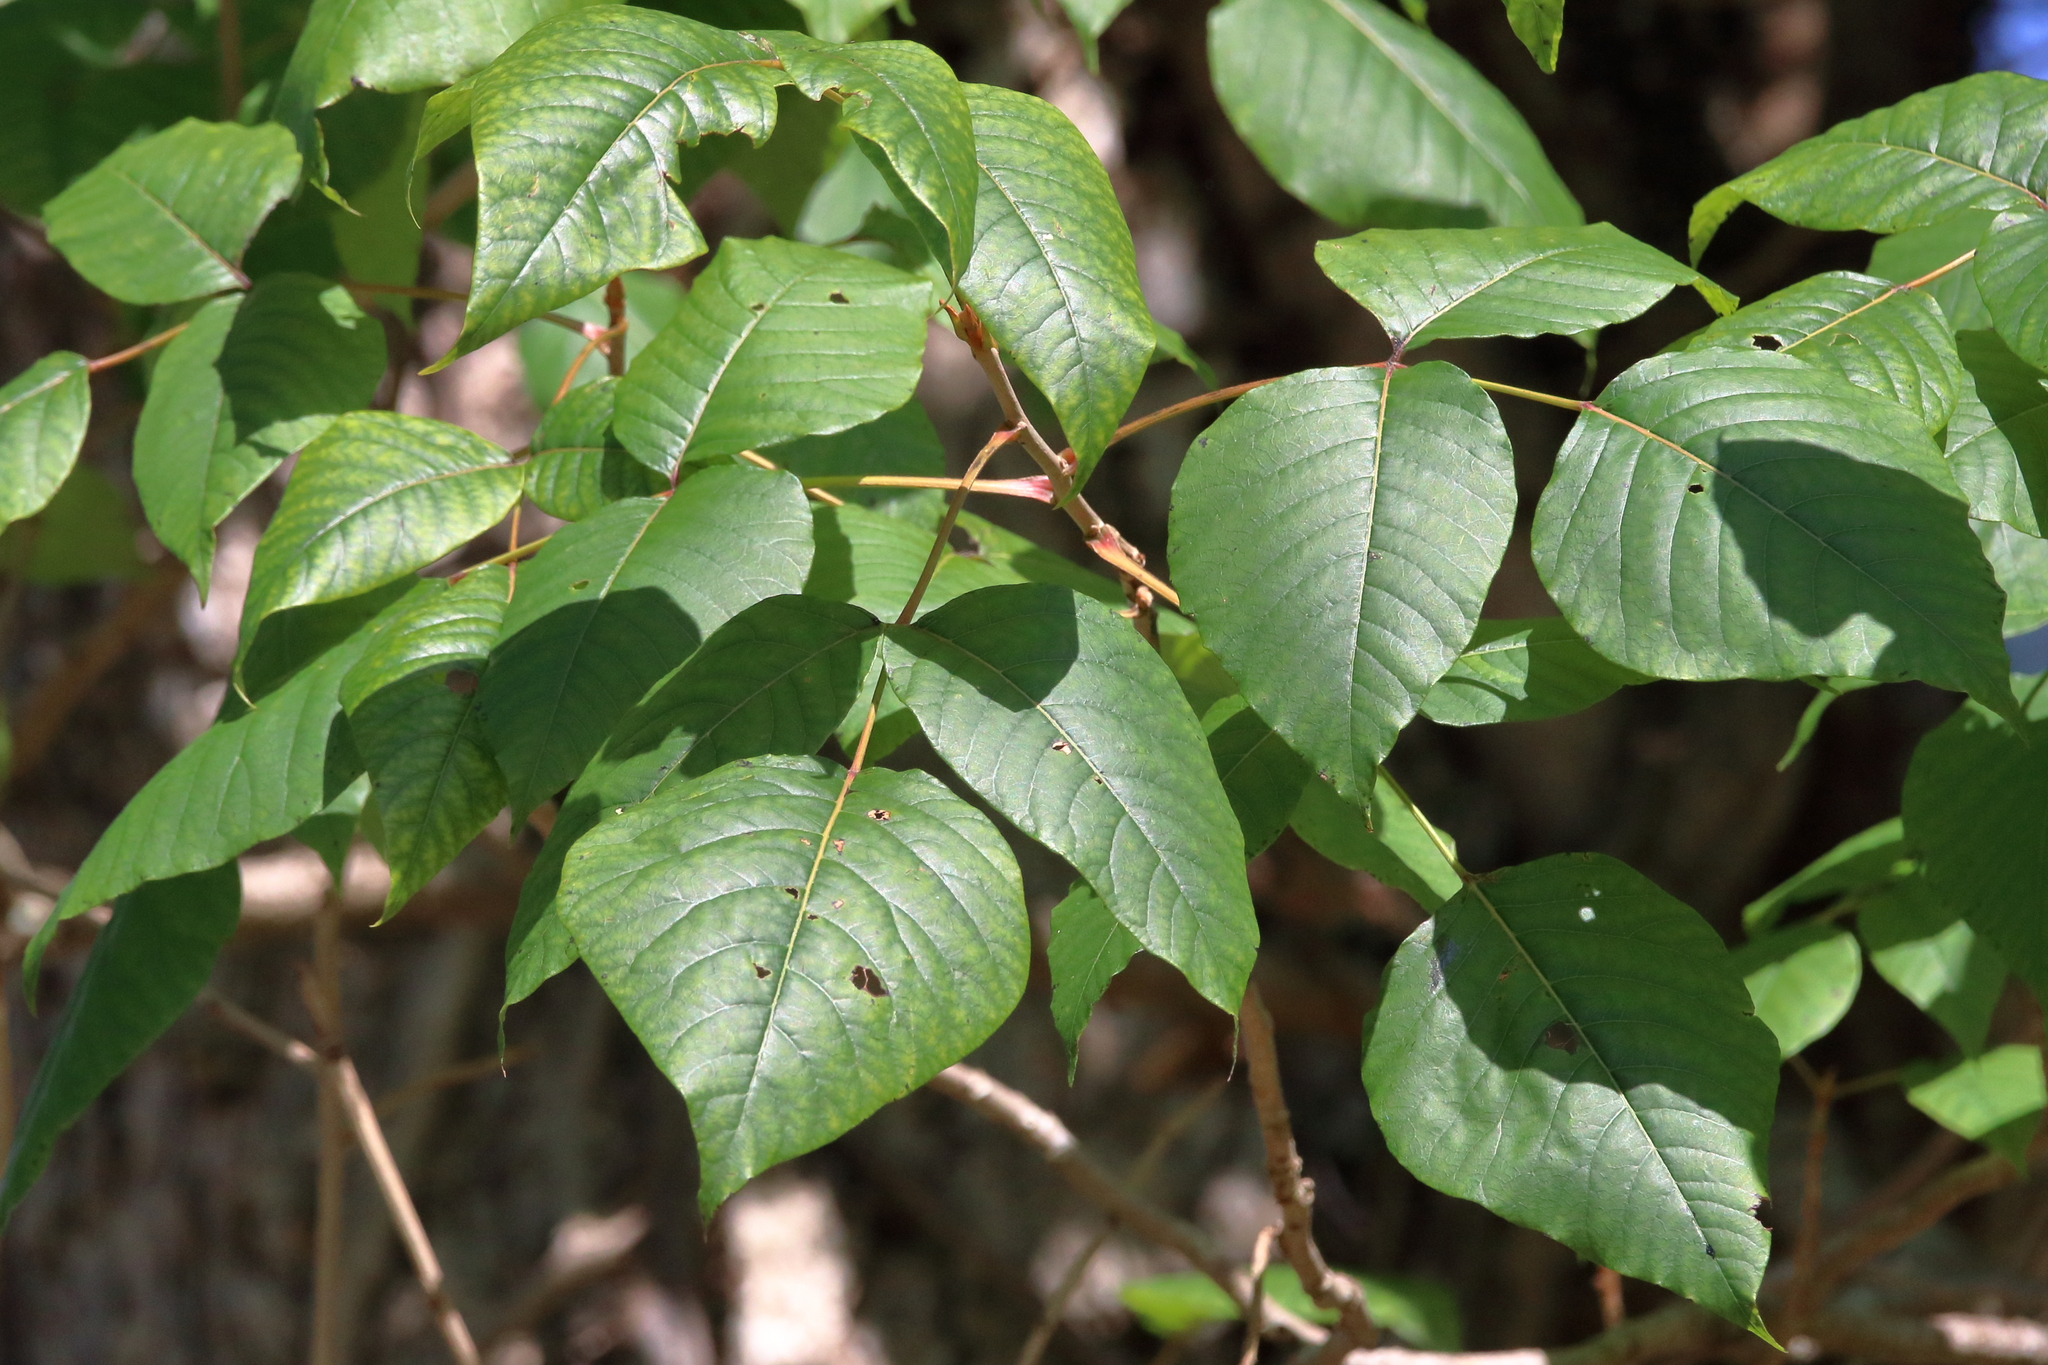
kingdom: Plantae
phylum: Tracheophyta
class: Magnoliopsida
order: Sapindales
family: Anacardiaceae
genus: Toxicodendron
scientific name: Toxicodendron radicans
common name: Poison ivy
